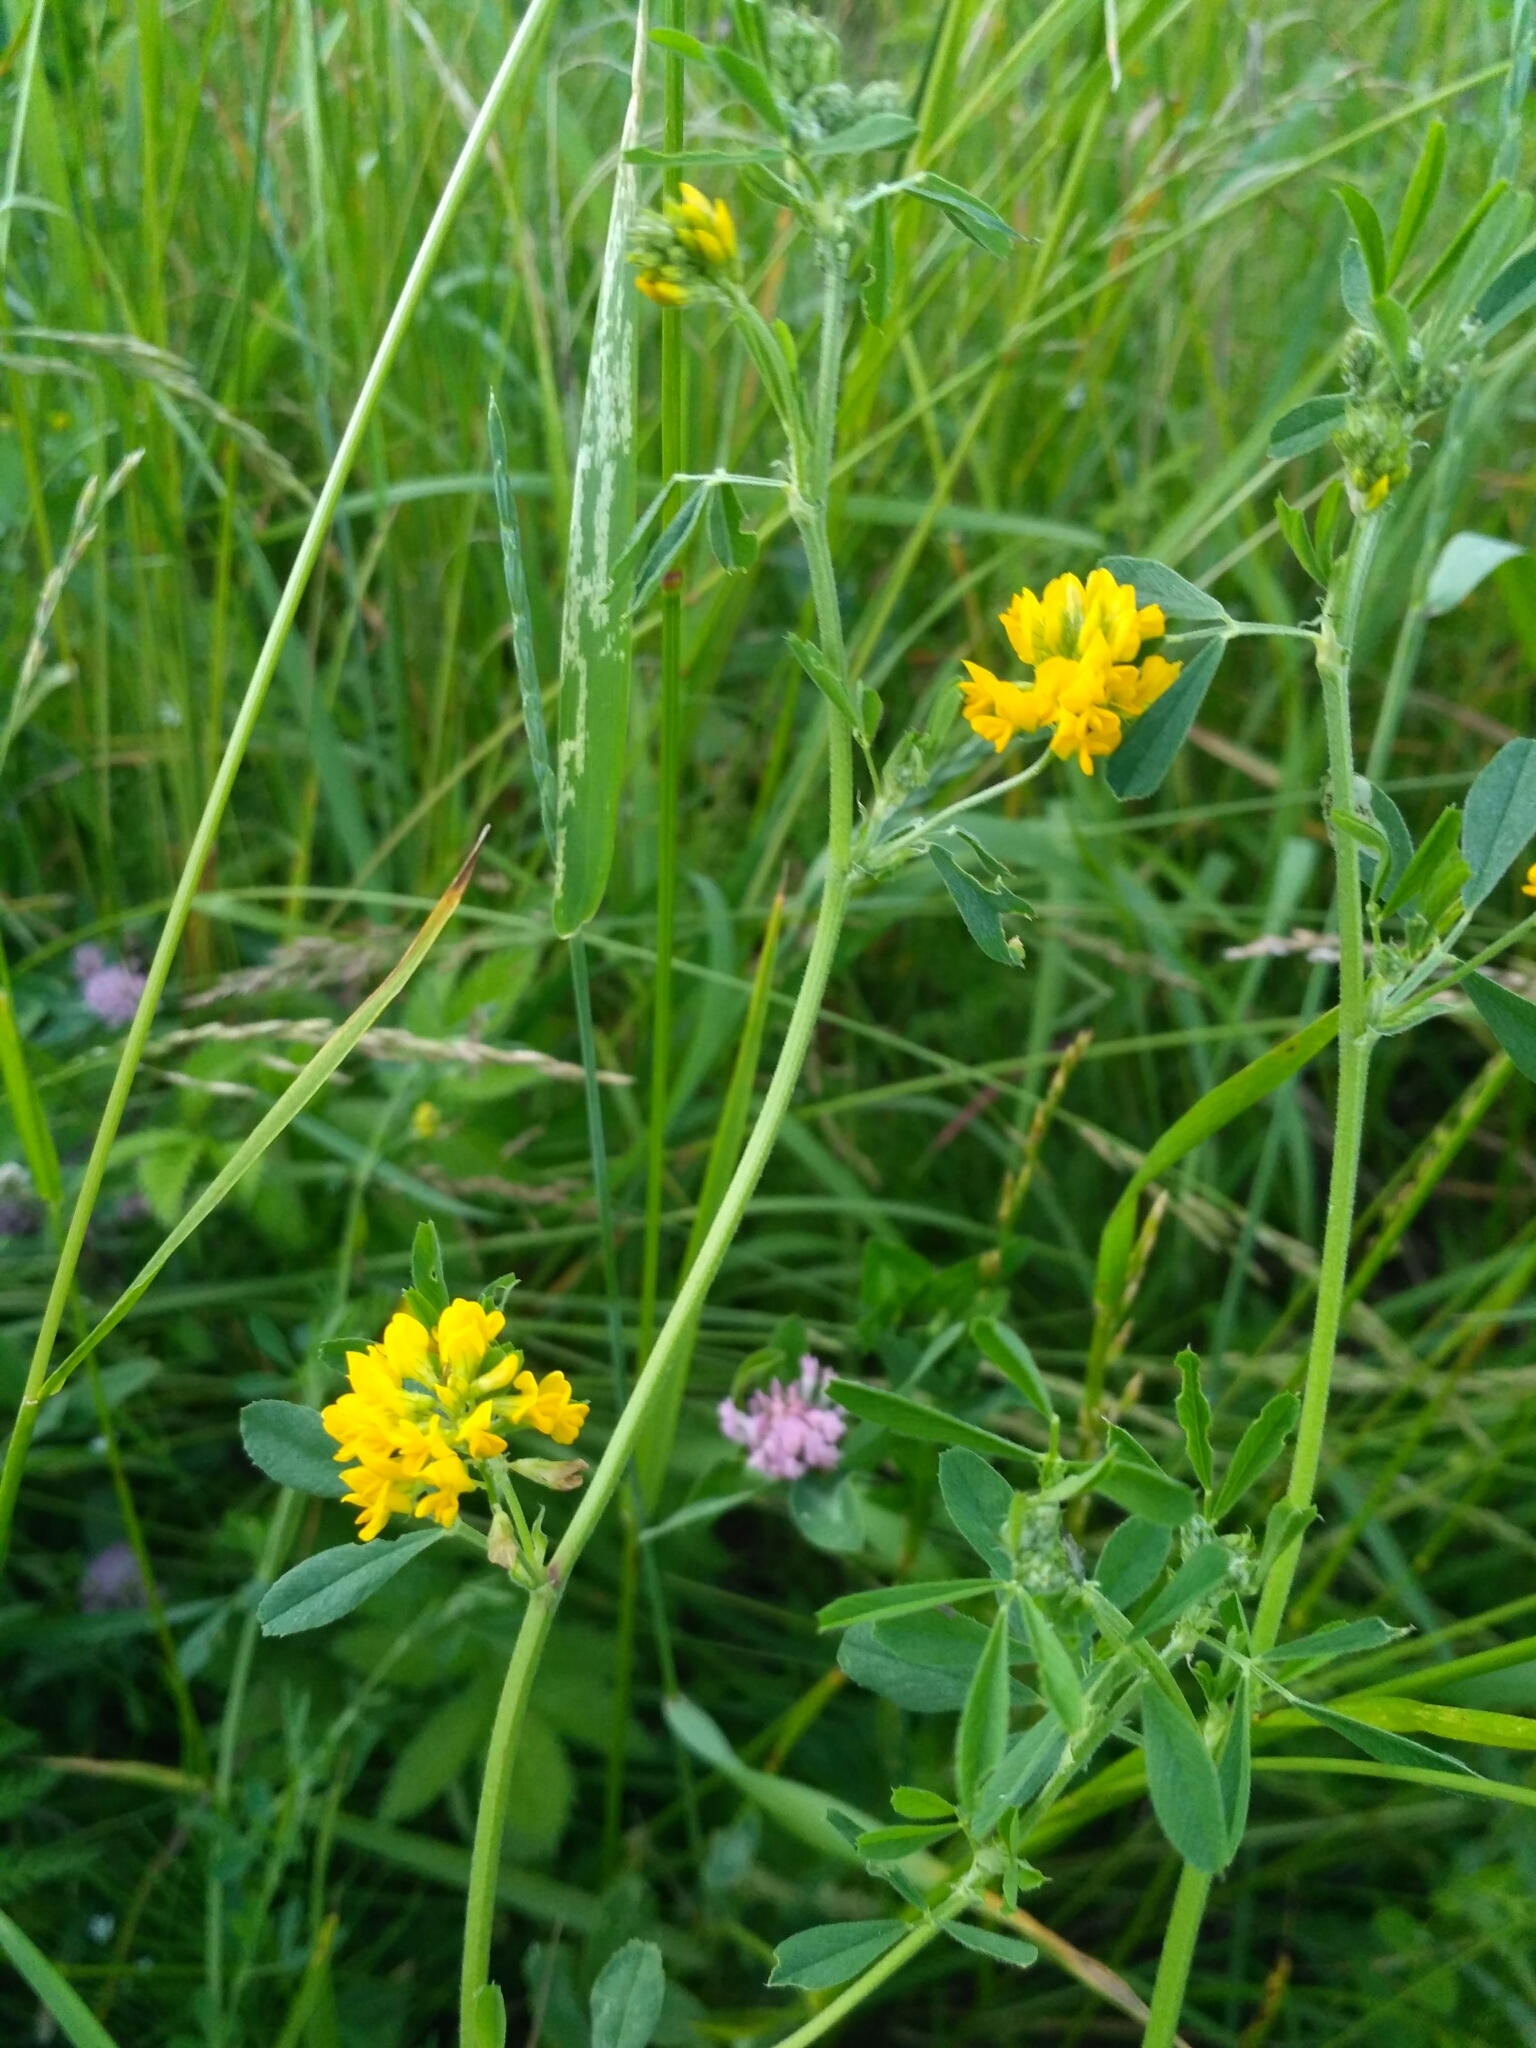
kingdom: Plantae
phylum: Tracheophyta
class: Magnoliopsida
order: Fabales
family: Fabaceae
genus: Medicago
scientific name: Medicago falcata
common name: Sickle medick
